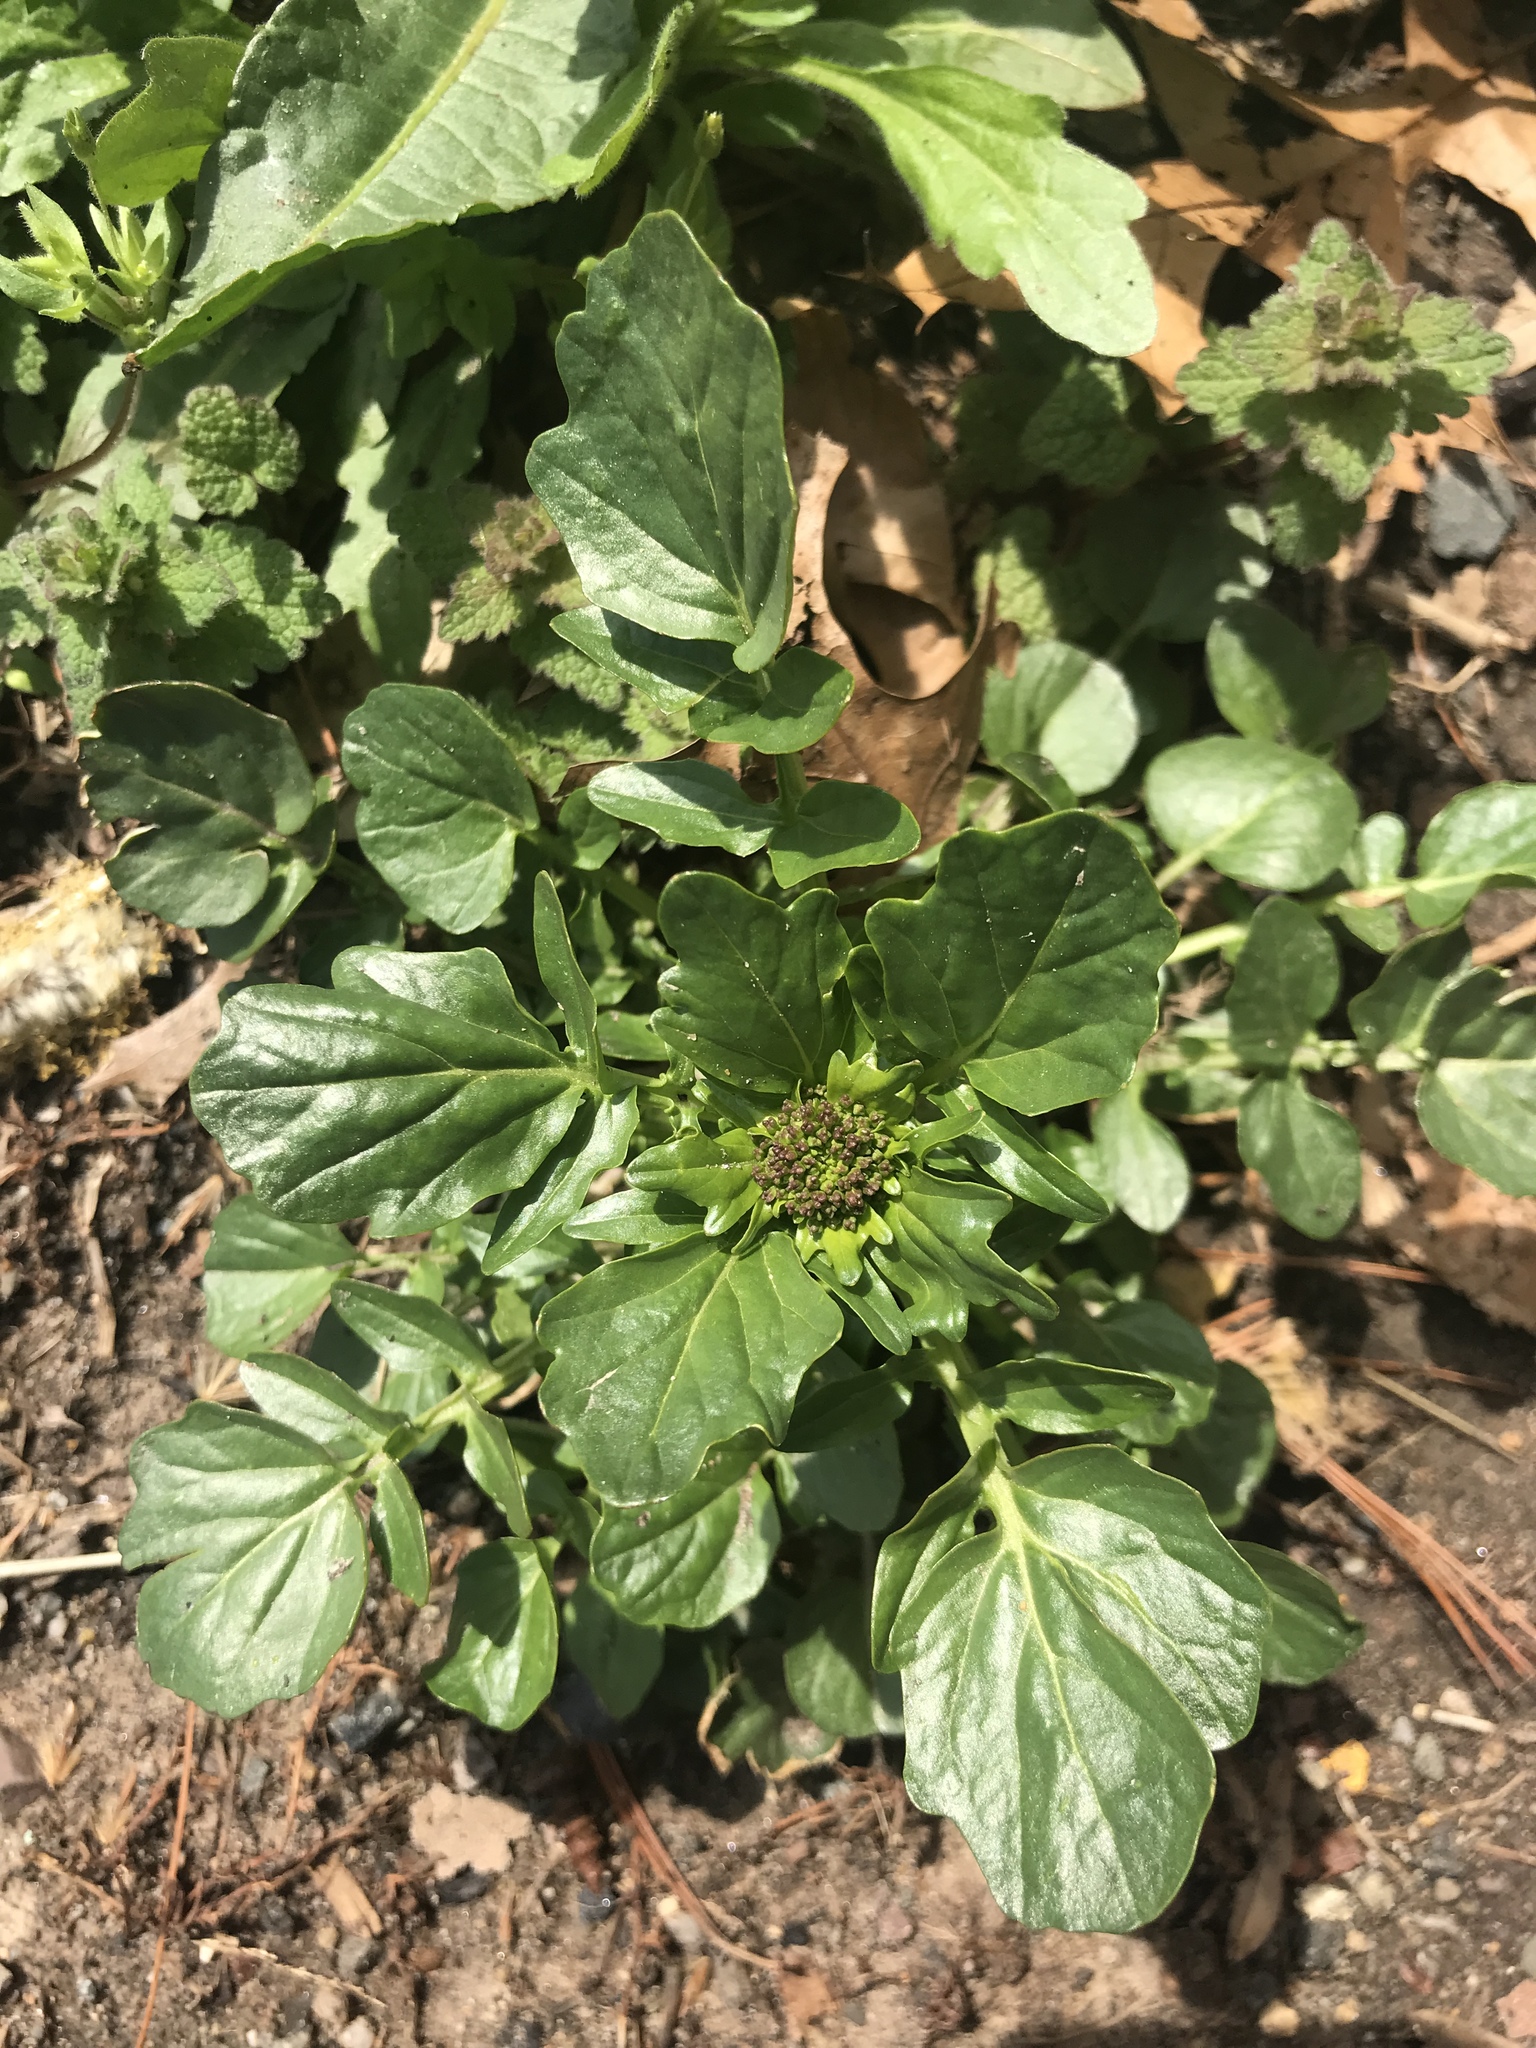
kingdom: Plantae
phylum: Tracheophyta
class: Magnoliopsida
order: Brassicales
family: Brassicaceae
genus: Barbarea
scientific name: Barbarea vulgaris
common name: Cressy-greens
